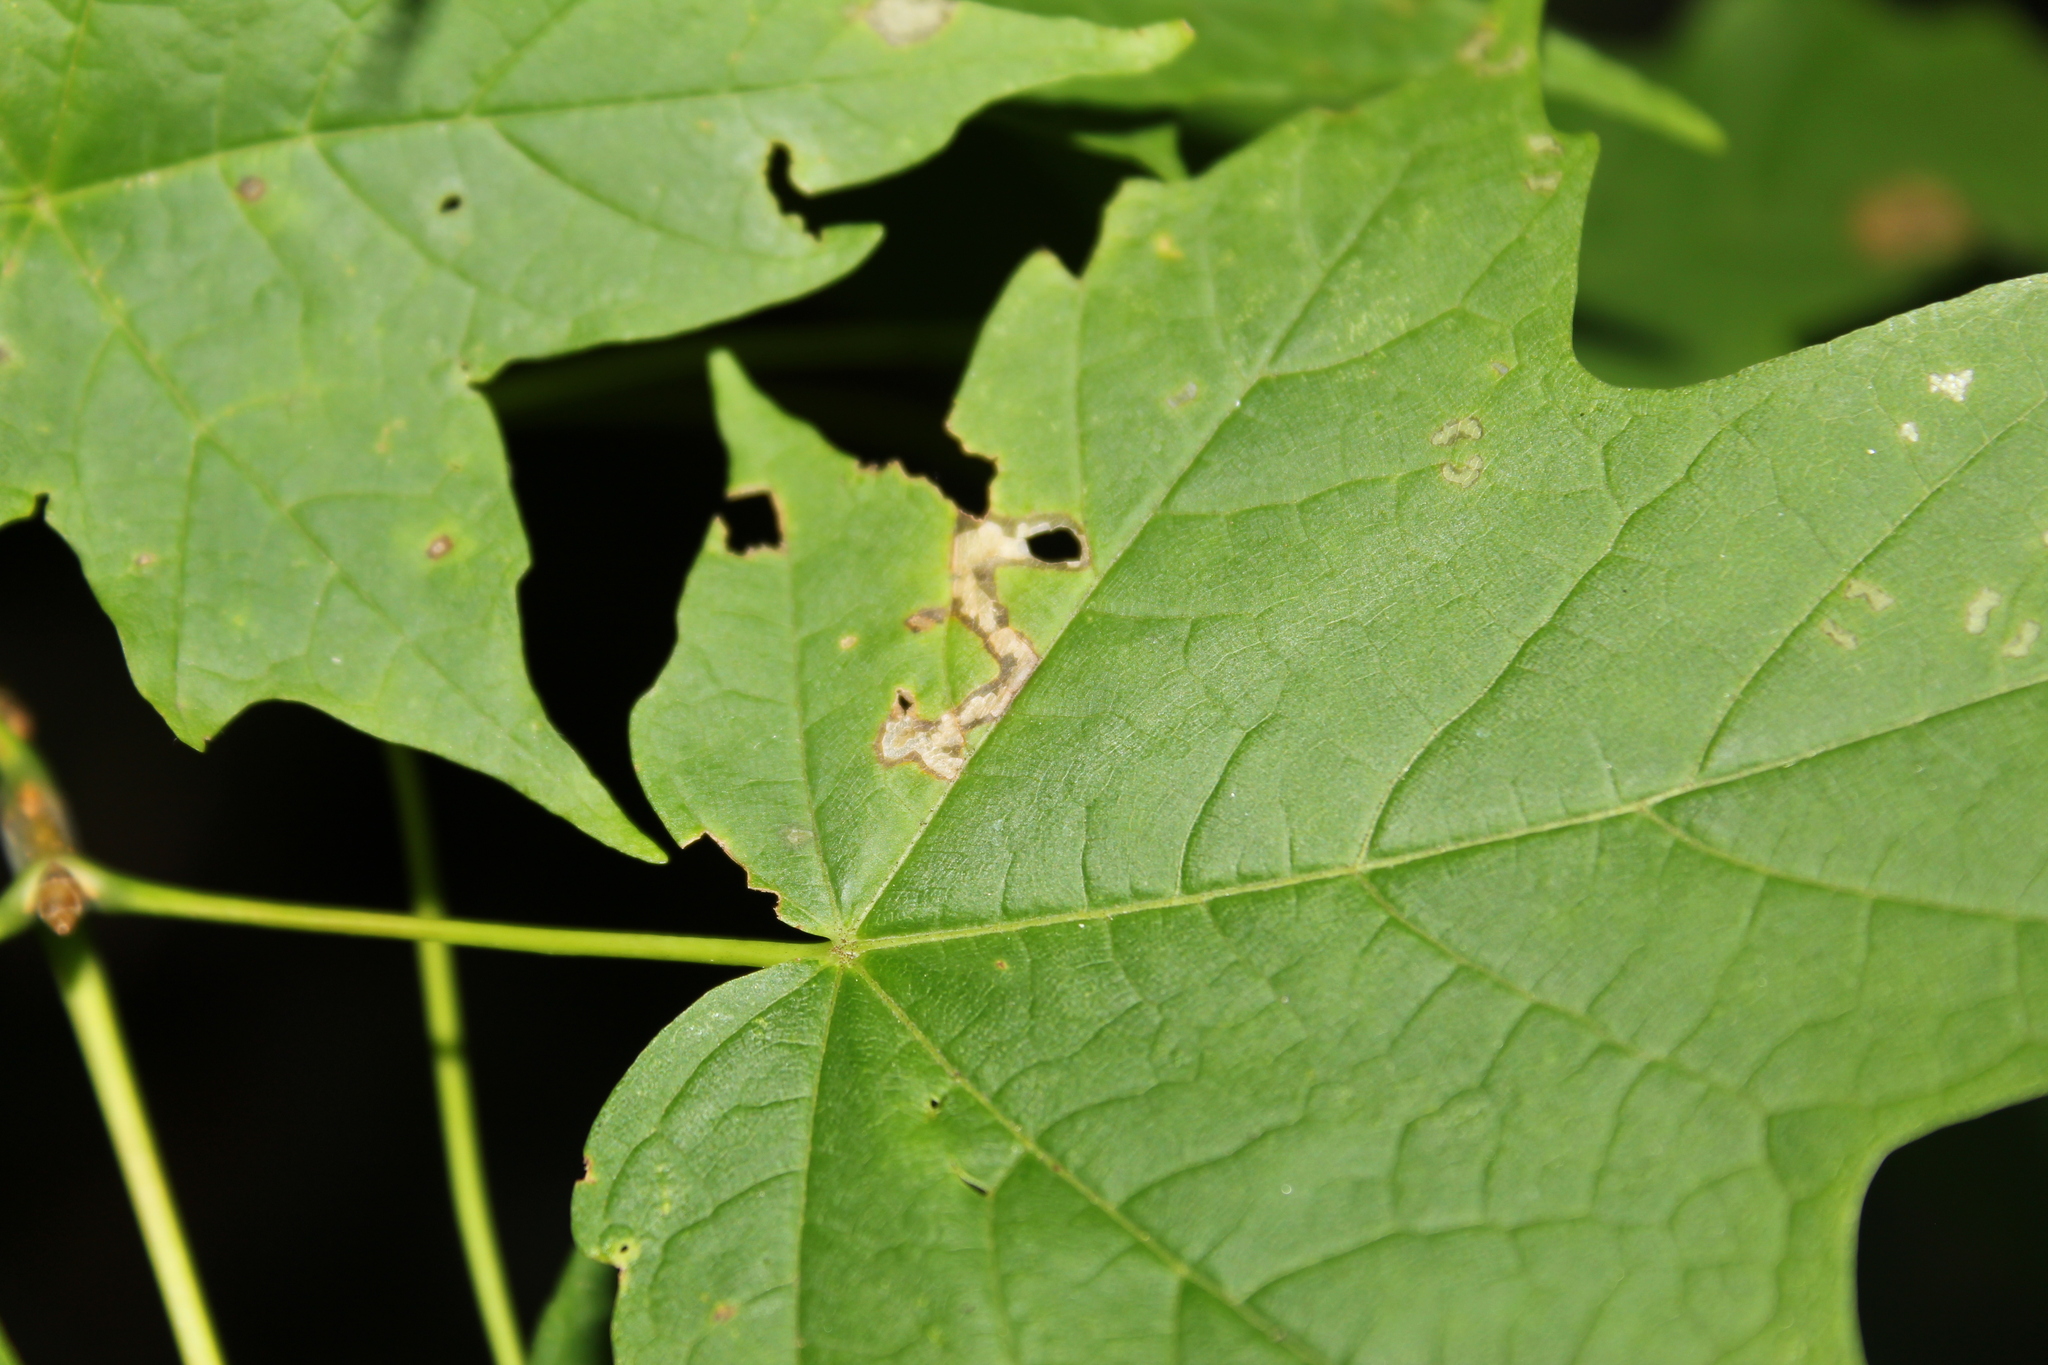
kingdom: Animalia
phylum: Arthropoda
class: Insecta
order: Lepidoptera
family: Incurvariidae
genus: Paraclemensia
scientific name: Paraclemensia acerifoliella
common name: Maple leafcutter
